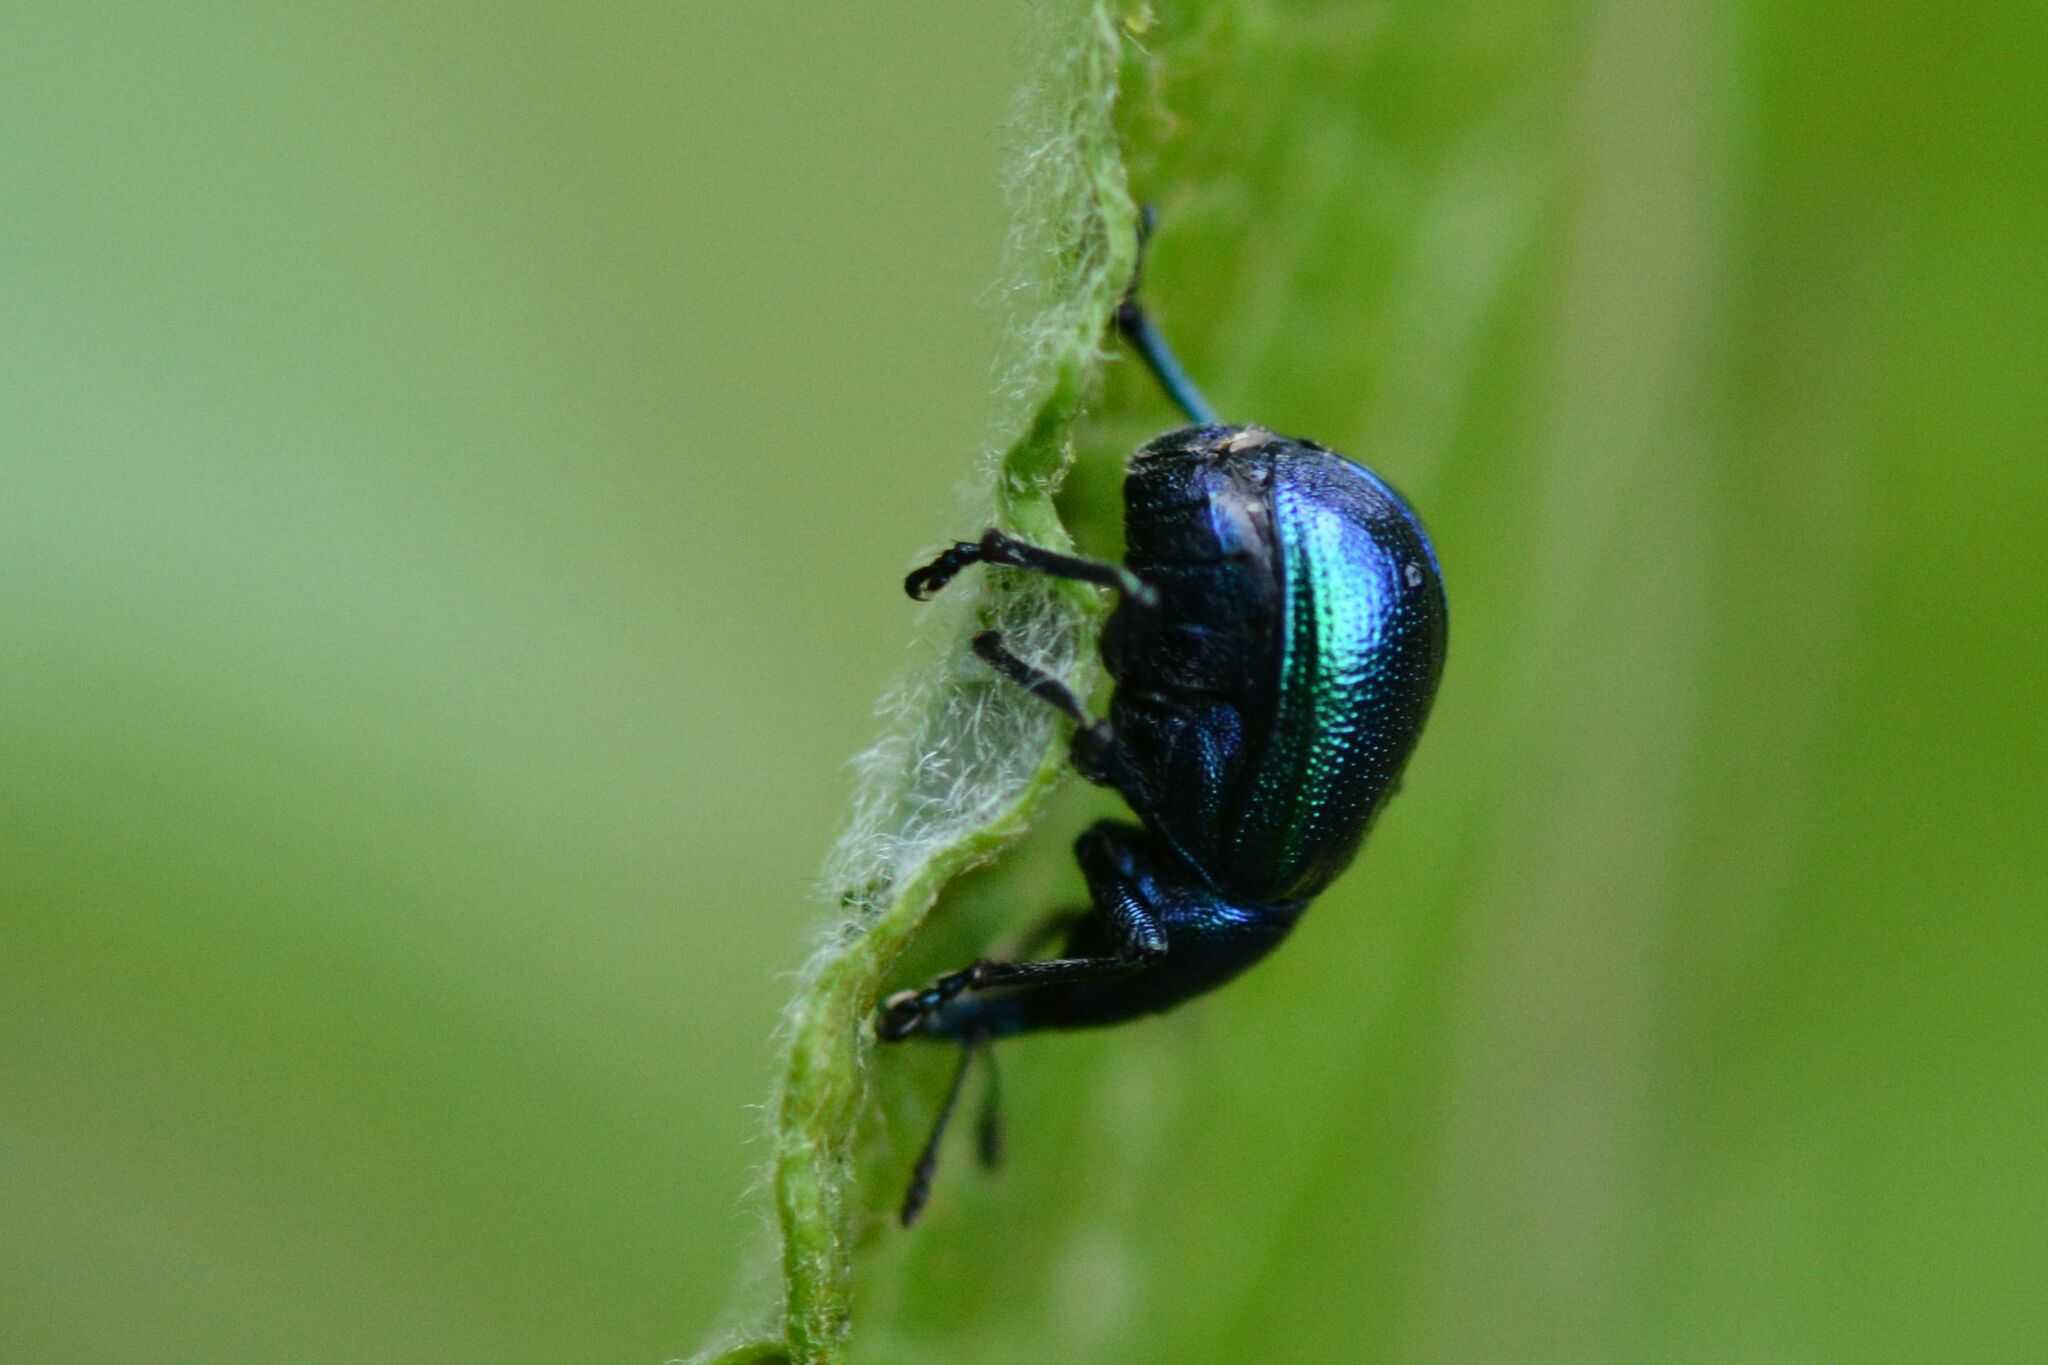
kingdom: Animalia
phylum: Arthropoda
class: Insecta
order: Coleoptera
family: Attelabidae
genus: Byctiscus
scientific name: Byctiscus betulae
